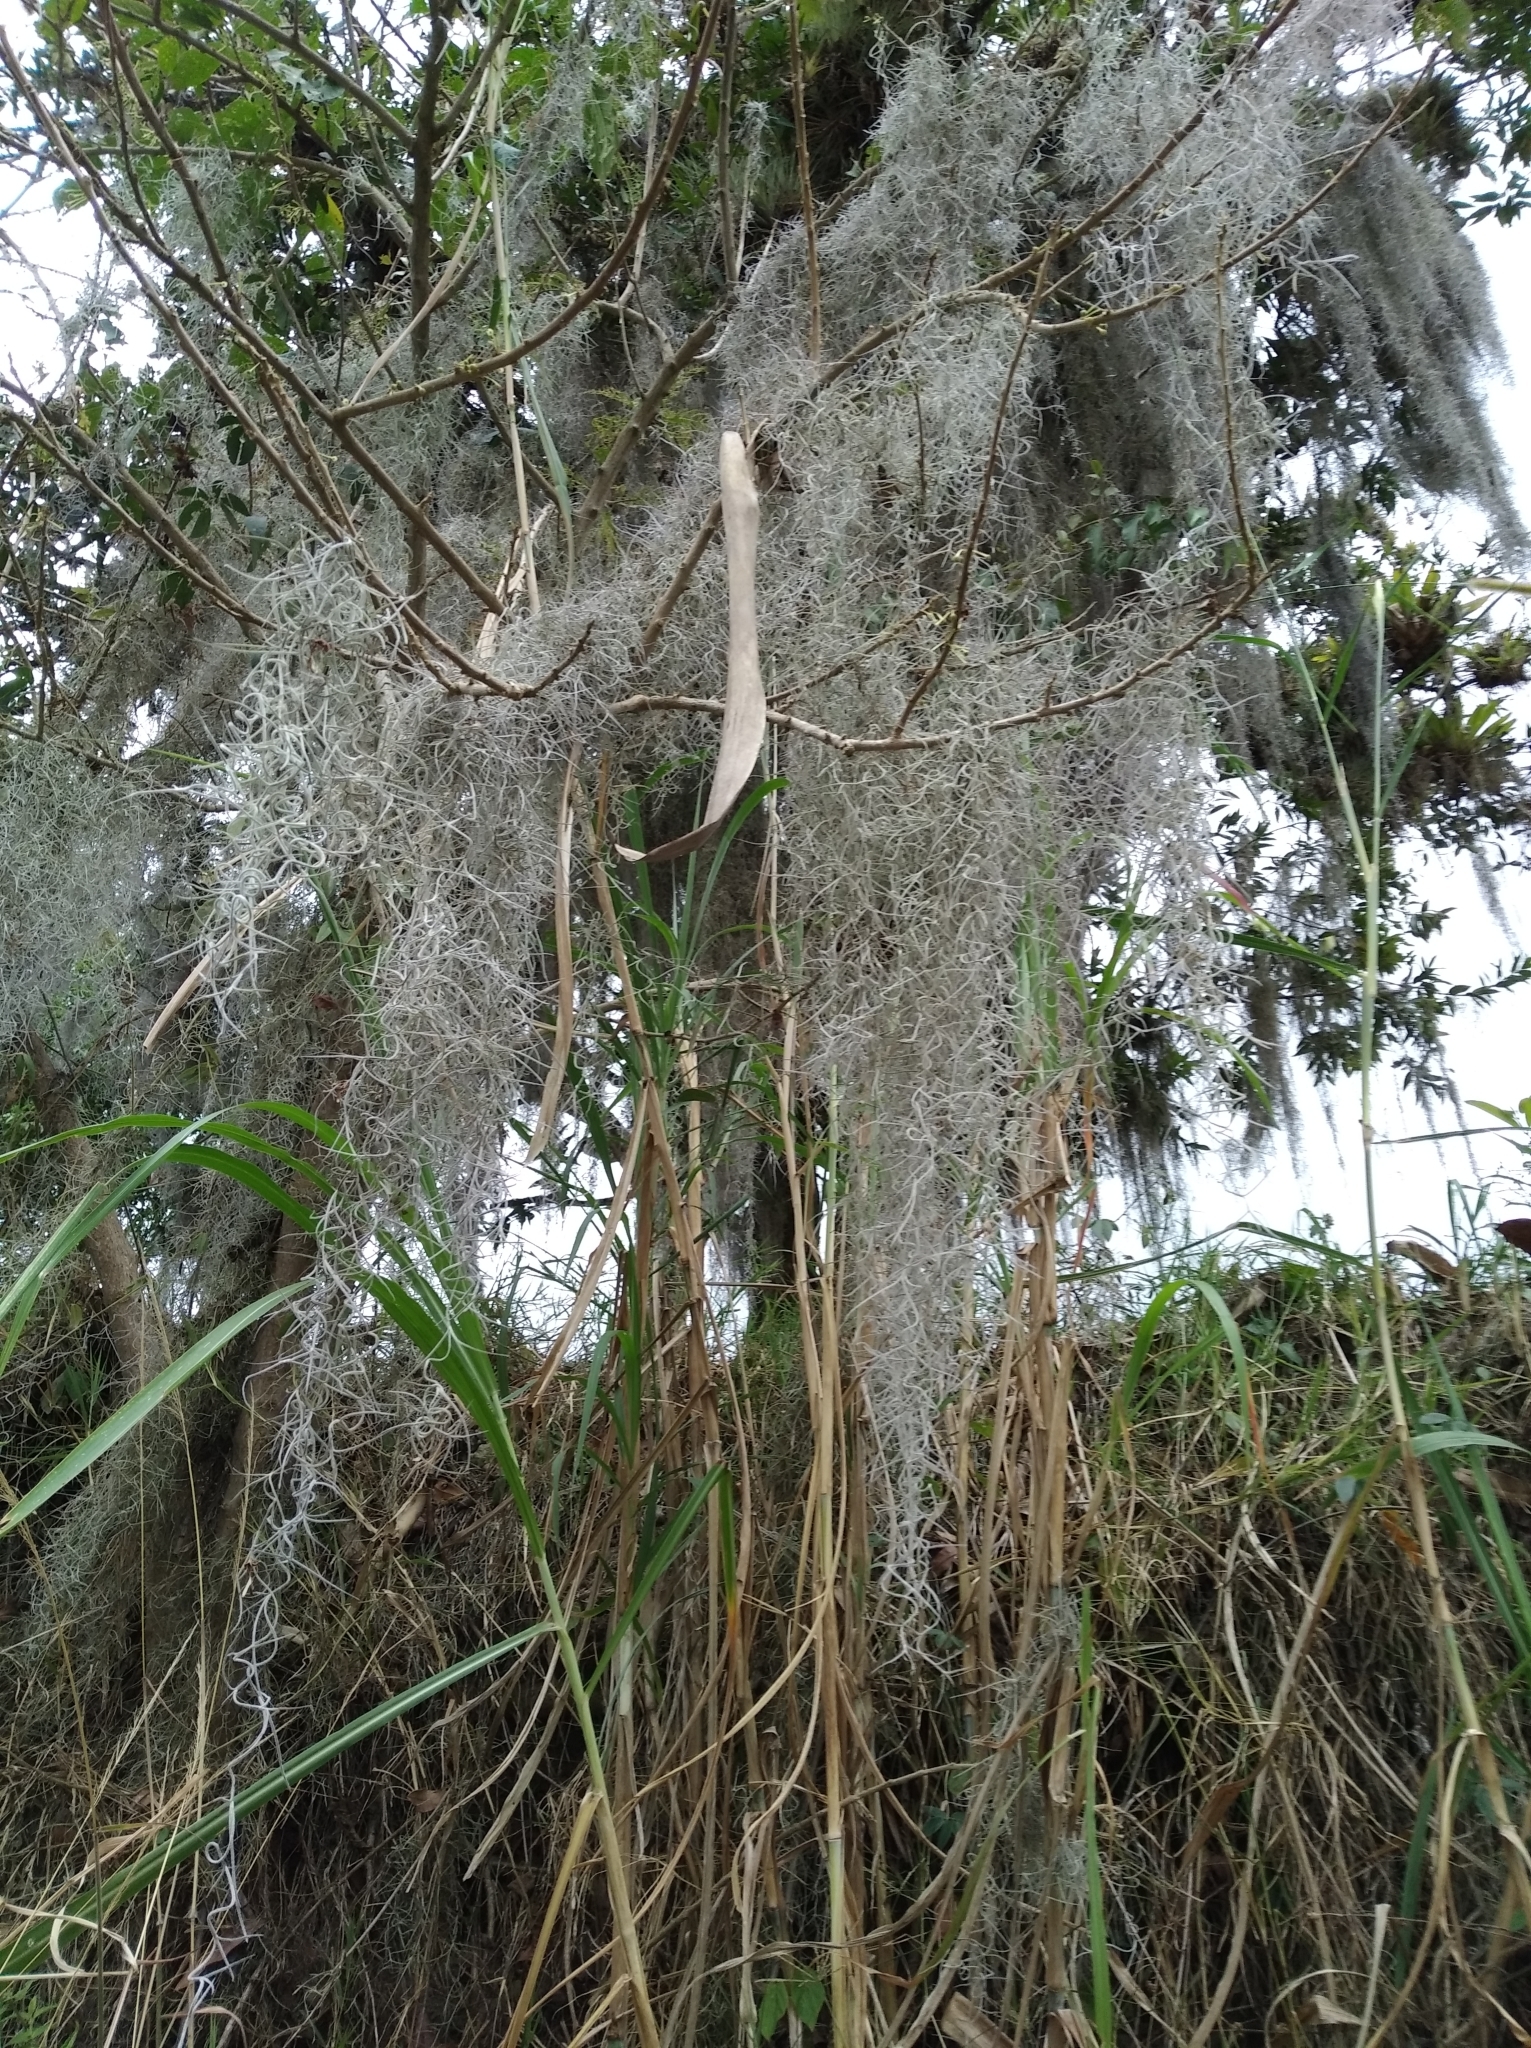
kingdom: Plantae
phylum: Tracheophyta
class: Liliopsida
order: Poales
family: Bromeliaceae
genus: Tillandsia
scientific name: Tillandsia usneoides
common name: Spanish moss
